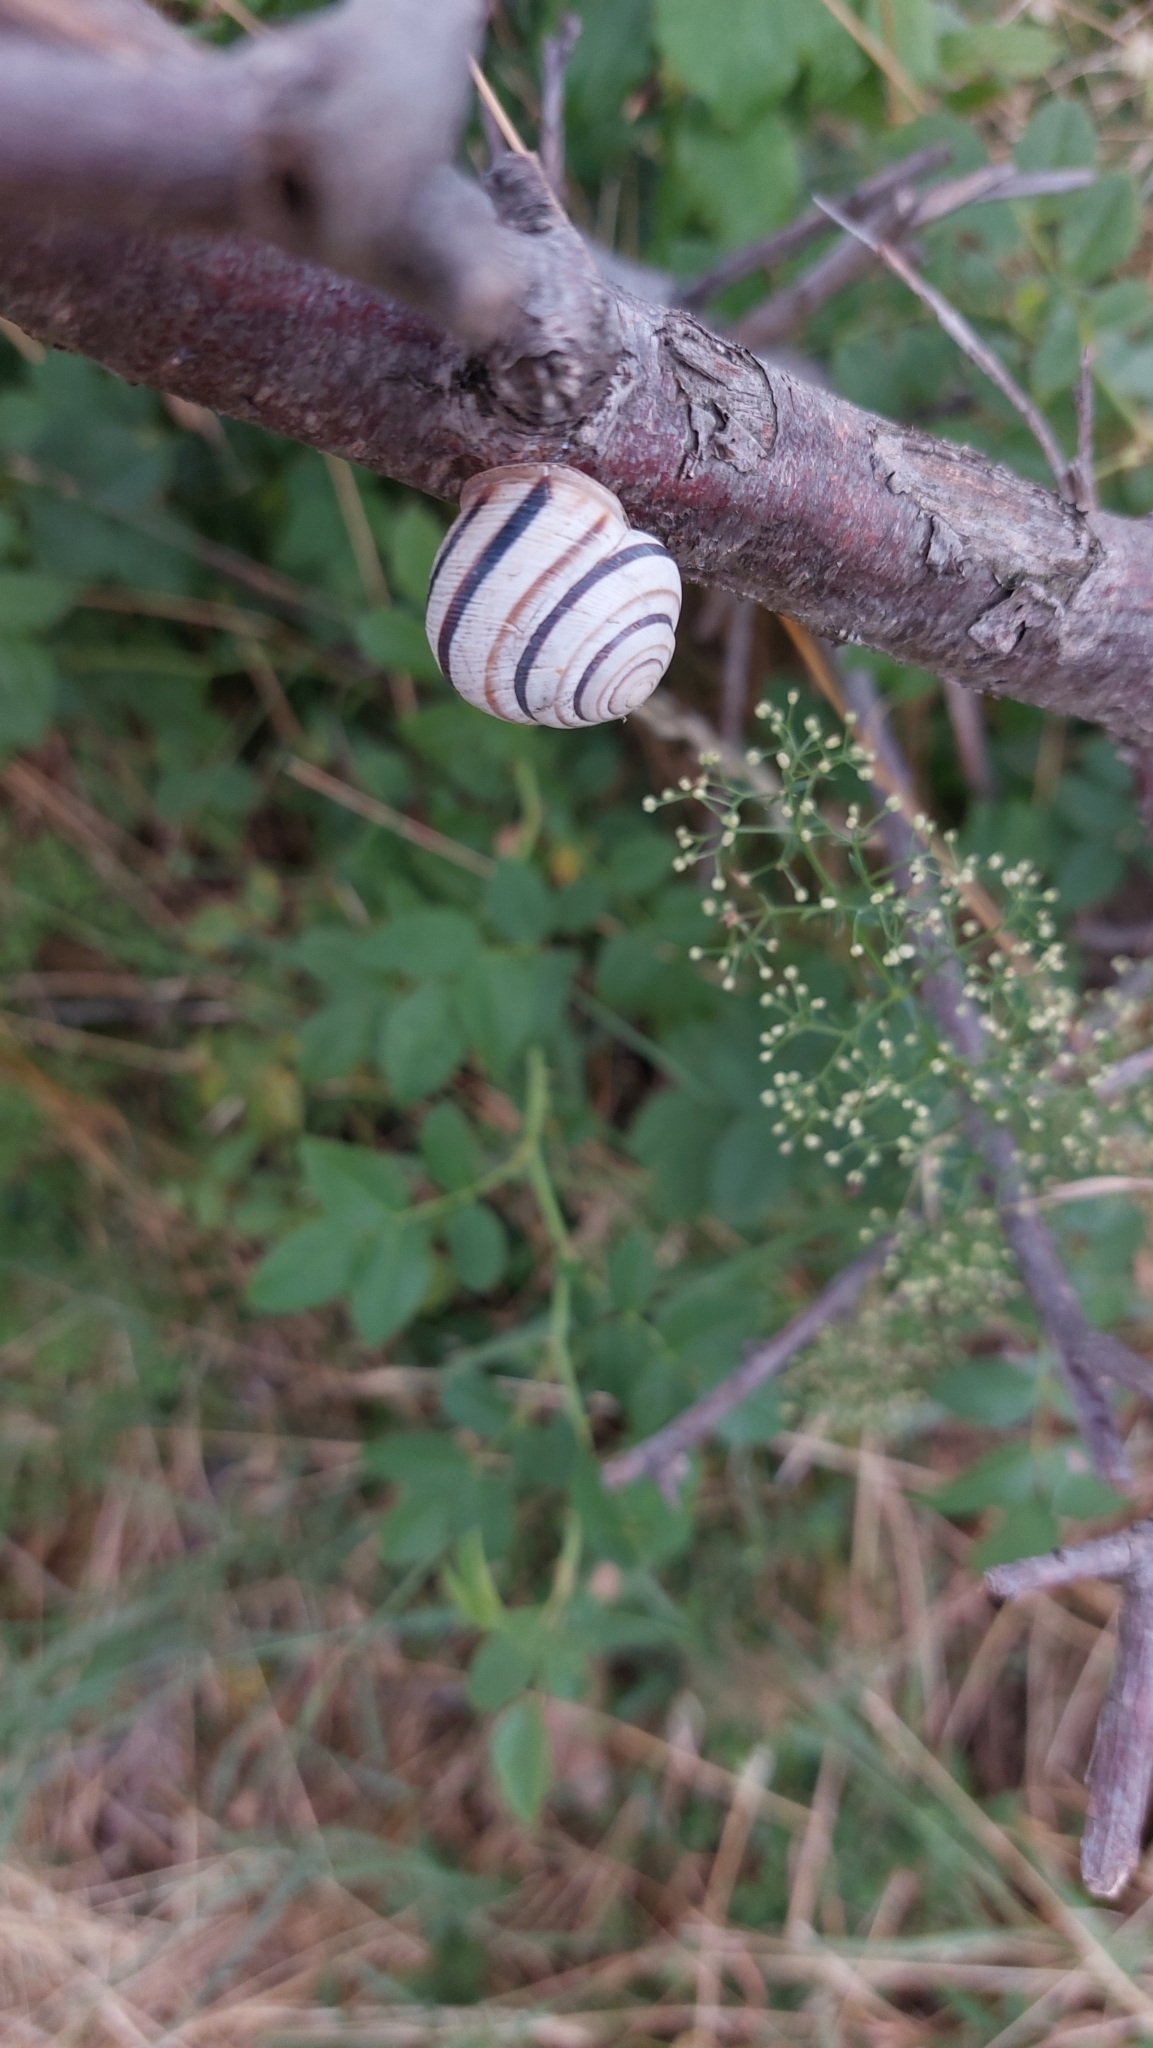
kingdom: Animalia
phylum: Mollusca
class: Gastropoda
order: Stylommatophora
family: Helicidae
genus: Caucasotachea
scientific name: Caucasotachea vindobonensis
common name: European helicid land snail
